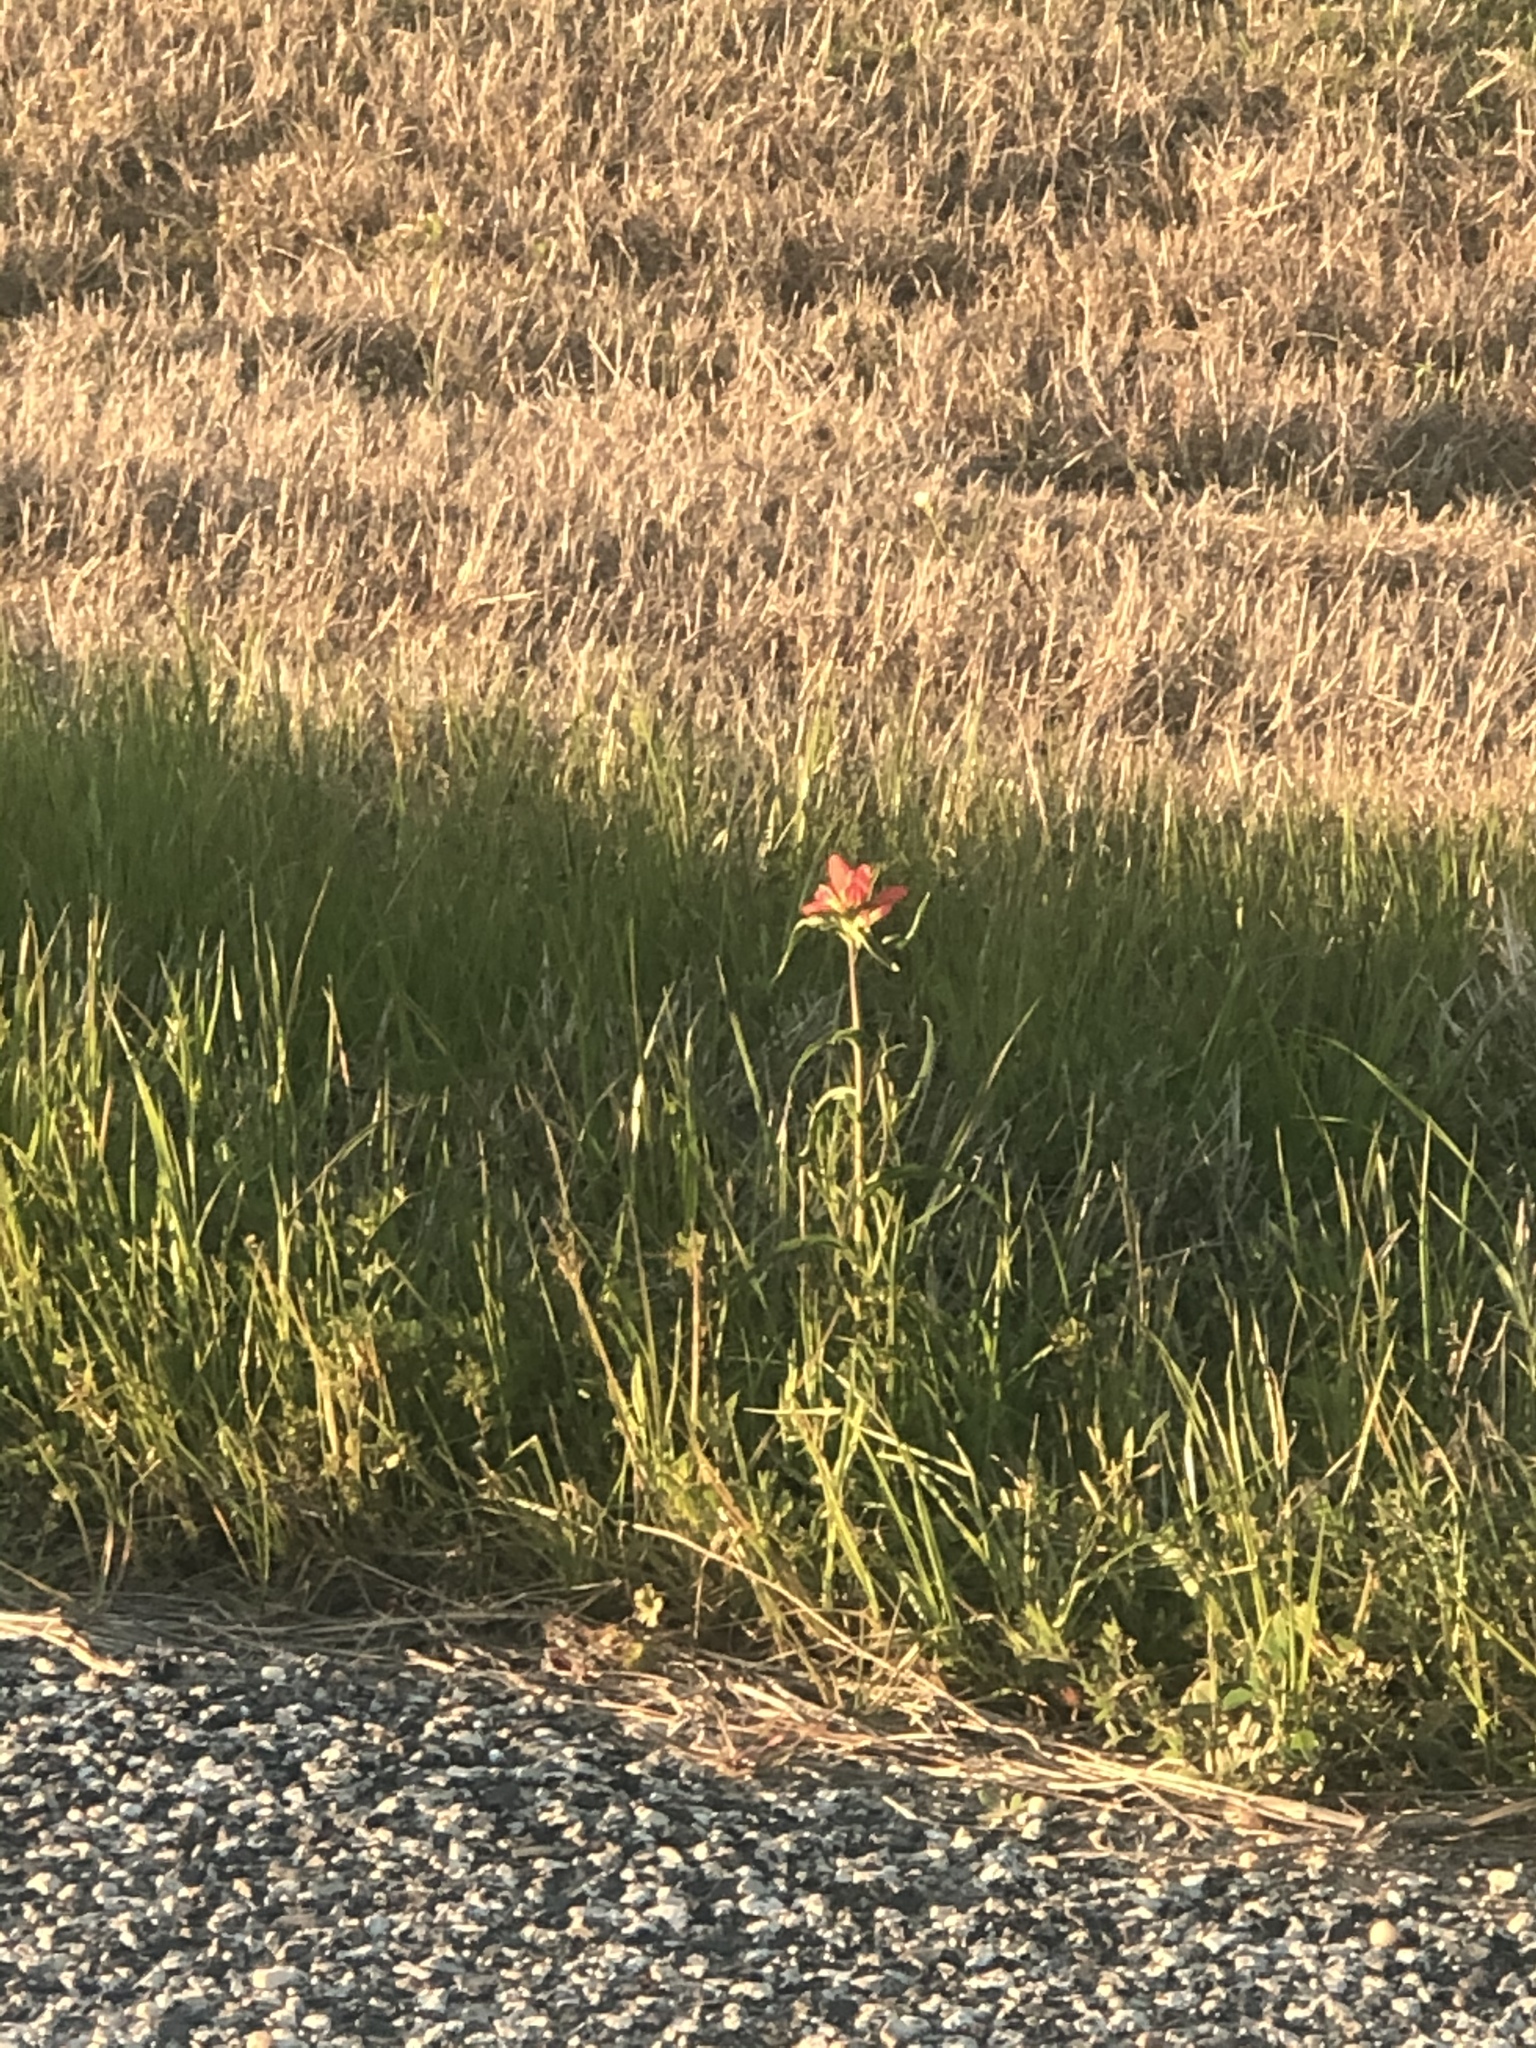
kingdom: Plantae
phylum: Tracheophyta
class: Magnoliopsida
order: Lamiales
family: Orobanchaceae
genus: Castilleja
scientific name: Castilleja indivisa
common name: Texas paintbrush
